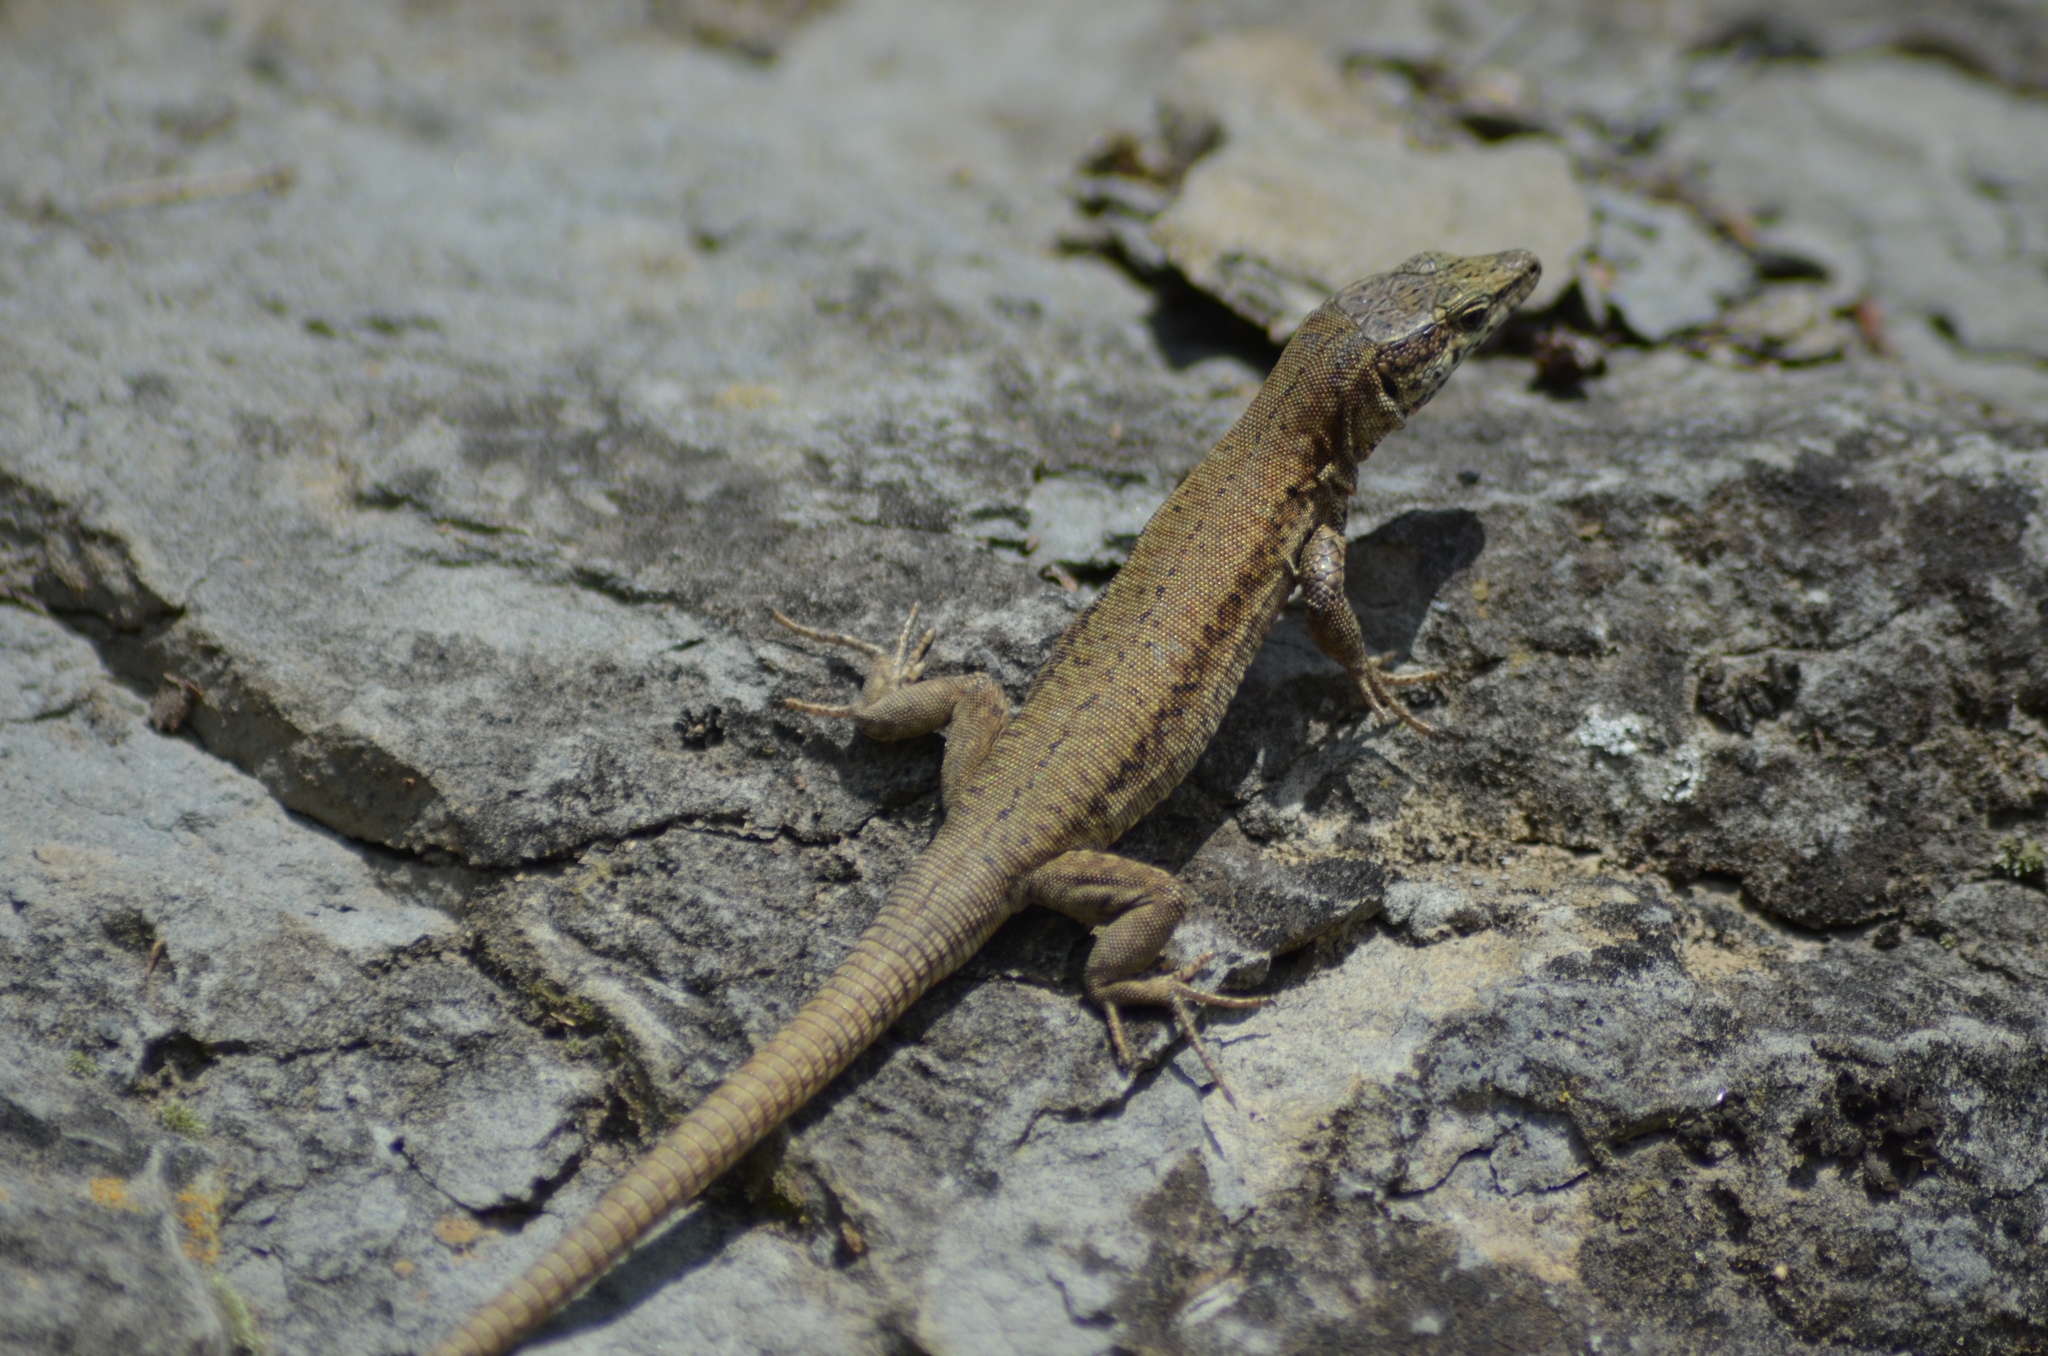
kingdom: Animalia
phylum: Chordata
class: Squamata
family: Lacertidae
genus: Podarcis
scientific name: Podarcis liolepis
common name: Catalonian wall lizard
